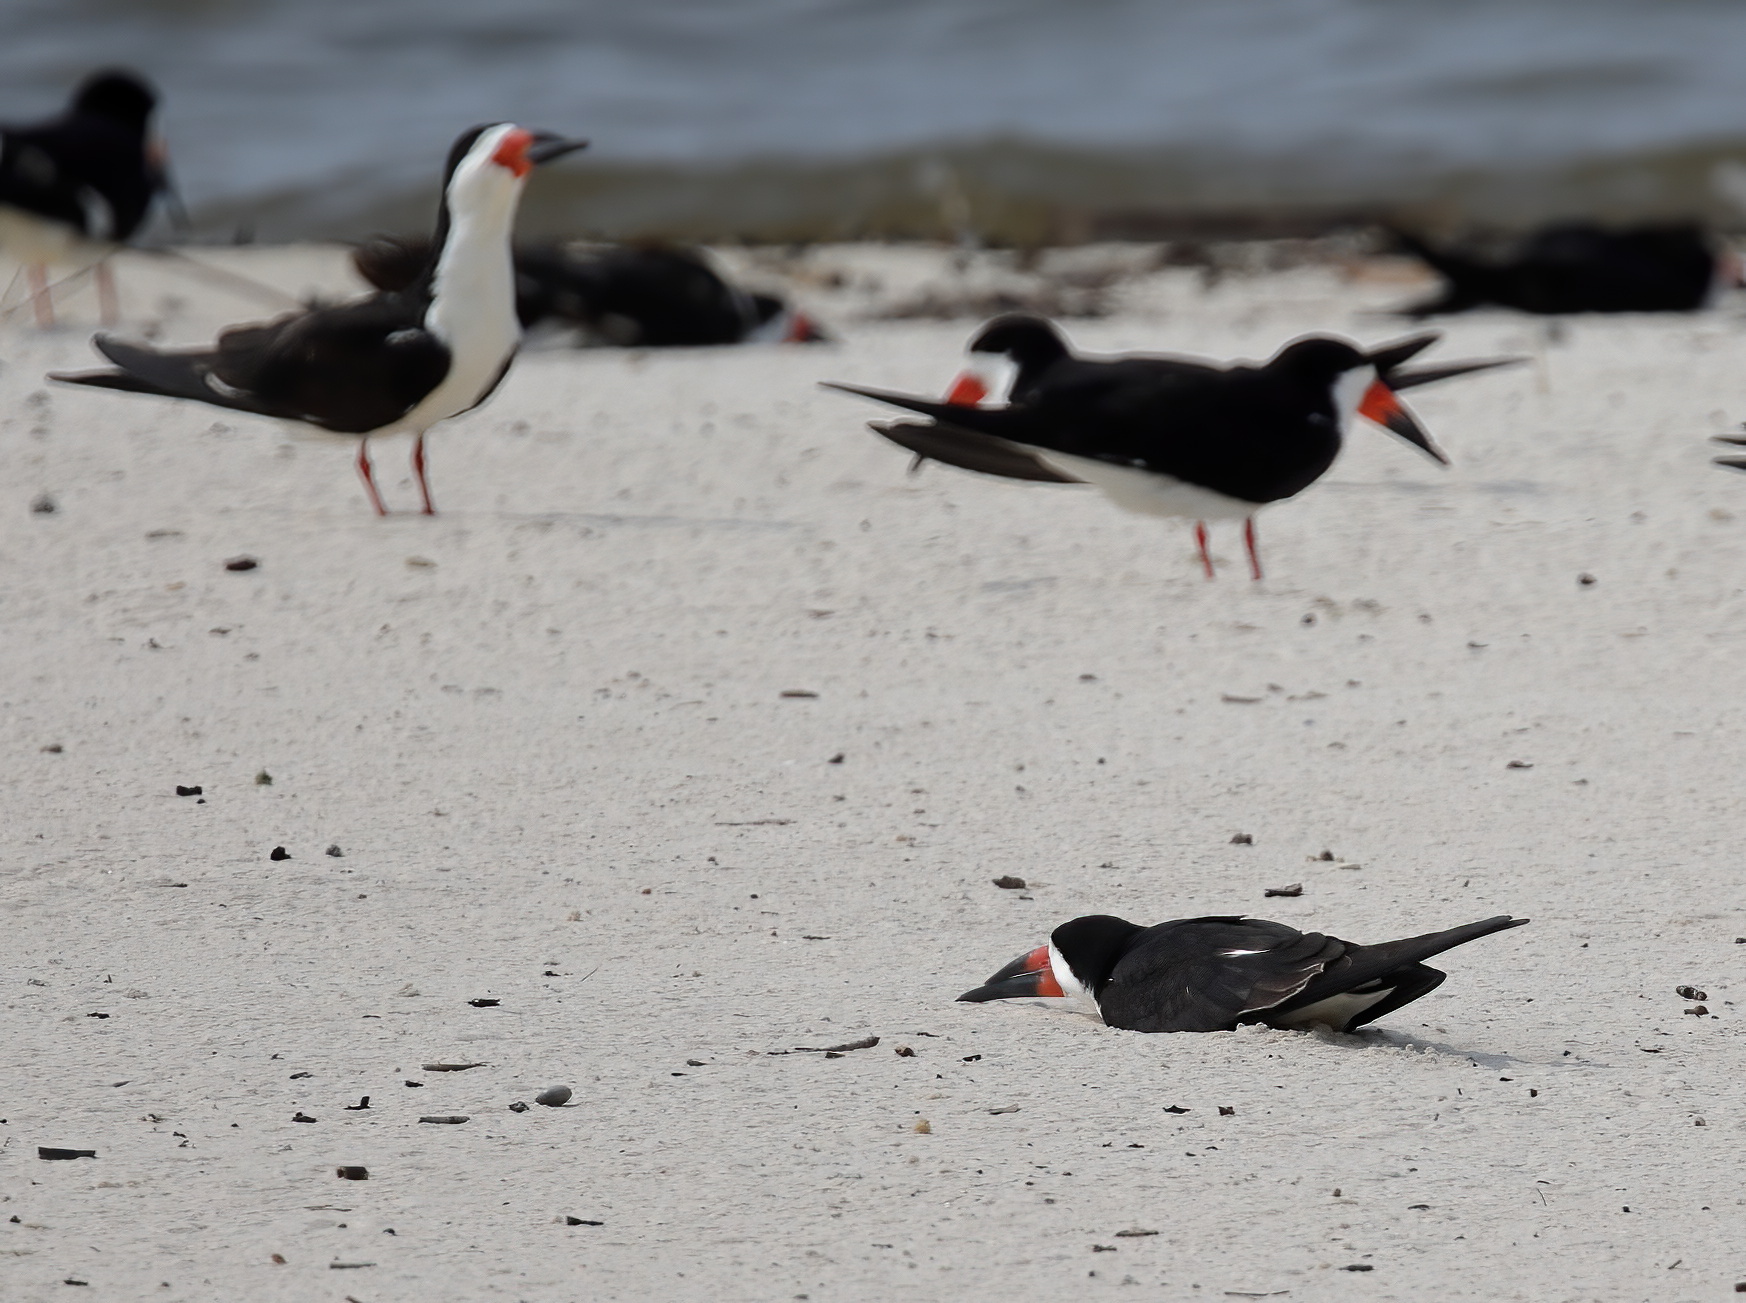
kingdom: Animalia
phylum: Chordata
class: Aves
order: Charadriiformes
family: Laridae
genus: Rynchops
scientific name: Rynchops niger
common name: Black skimmer
